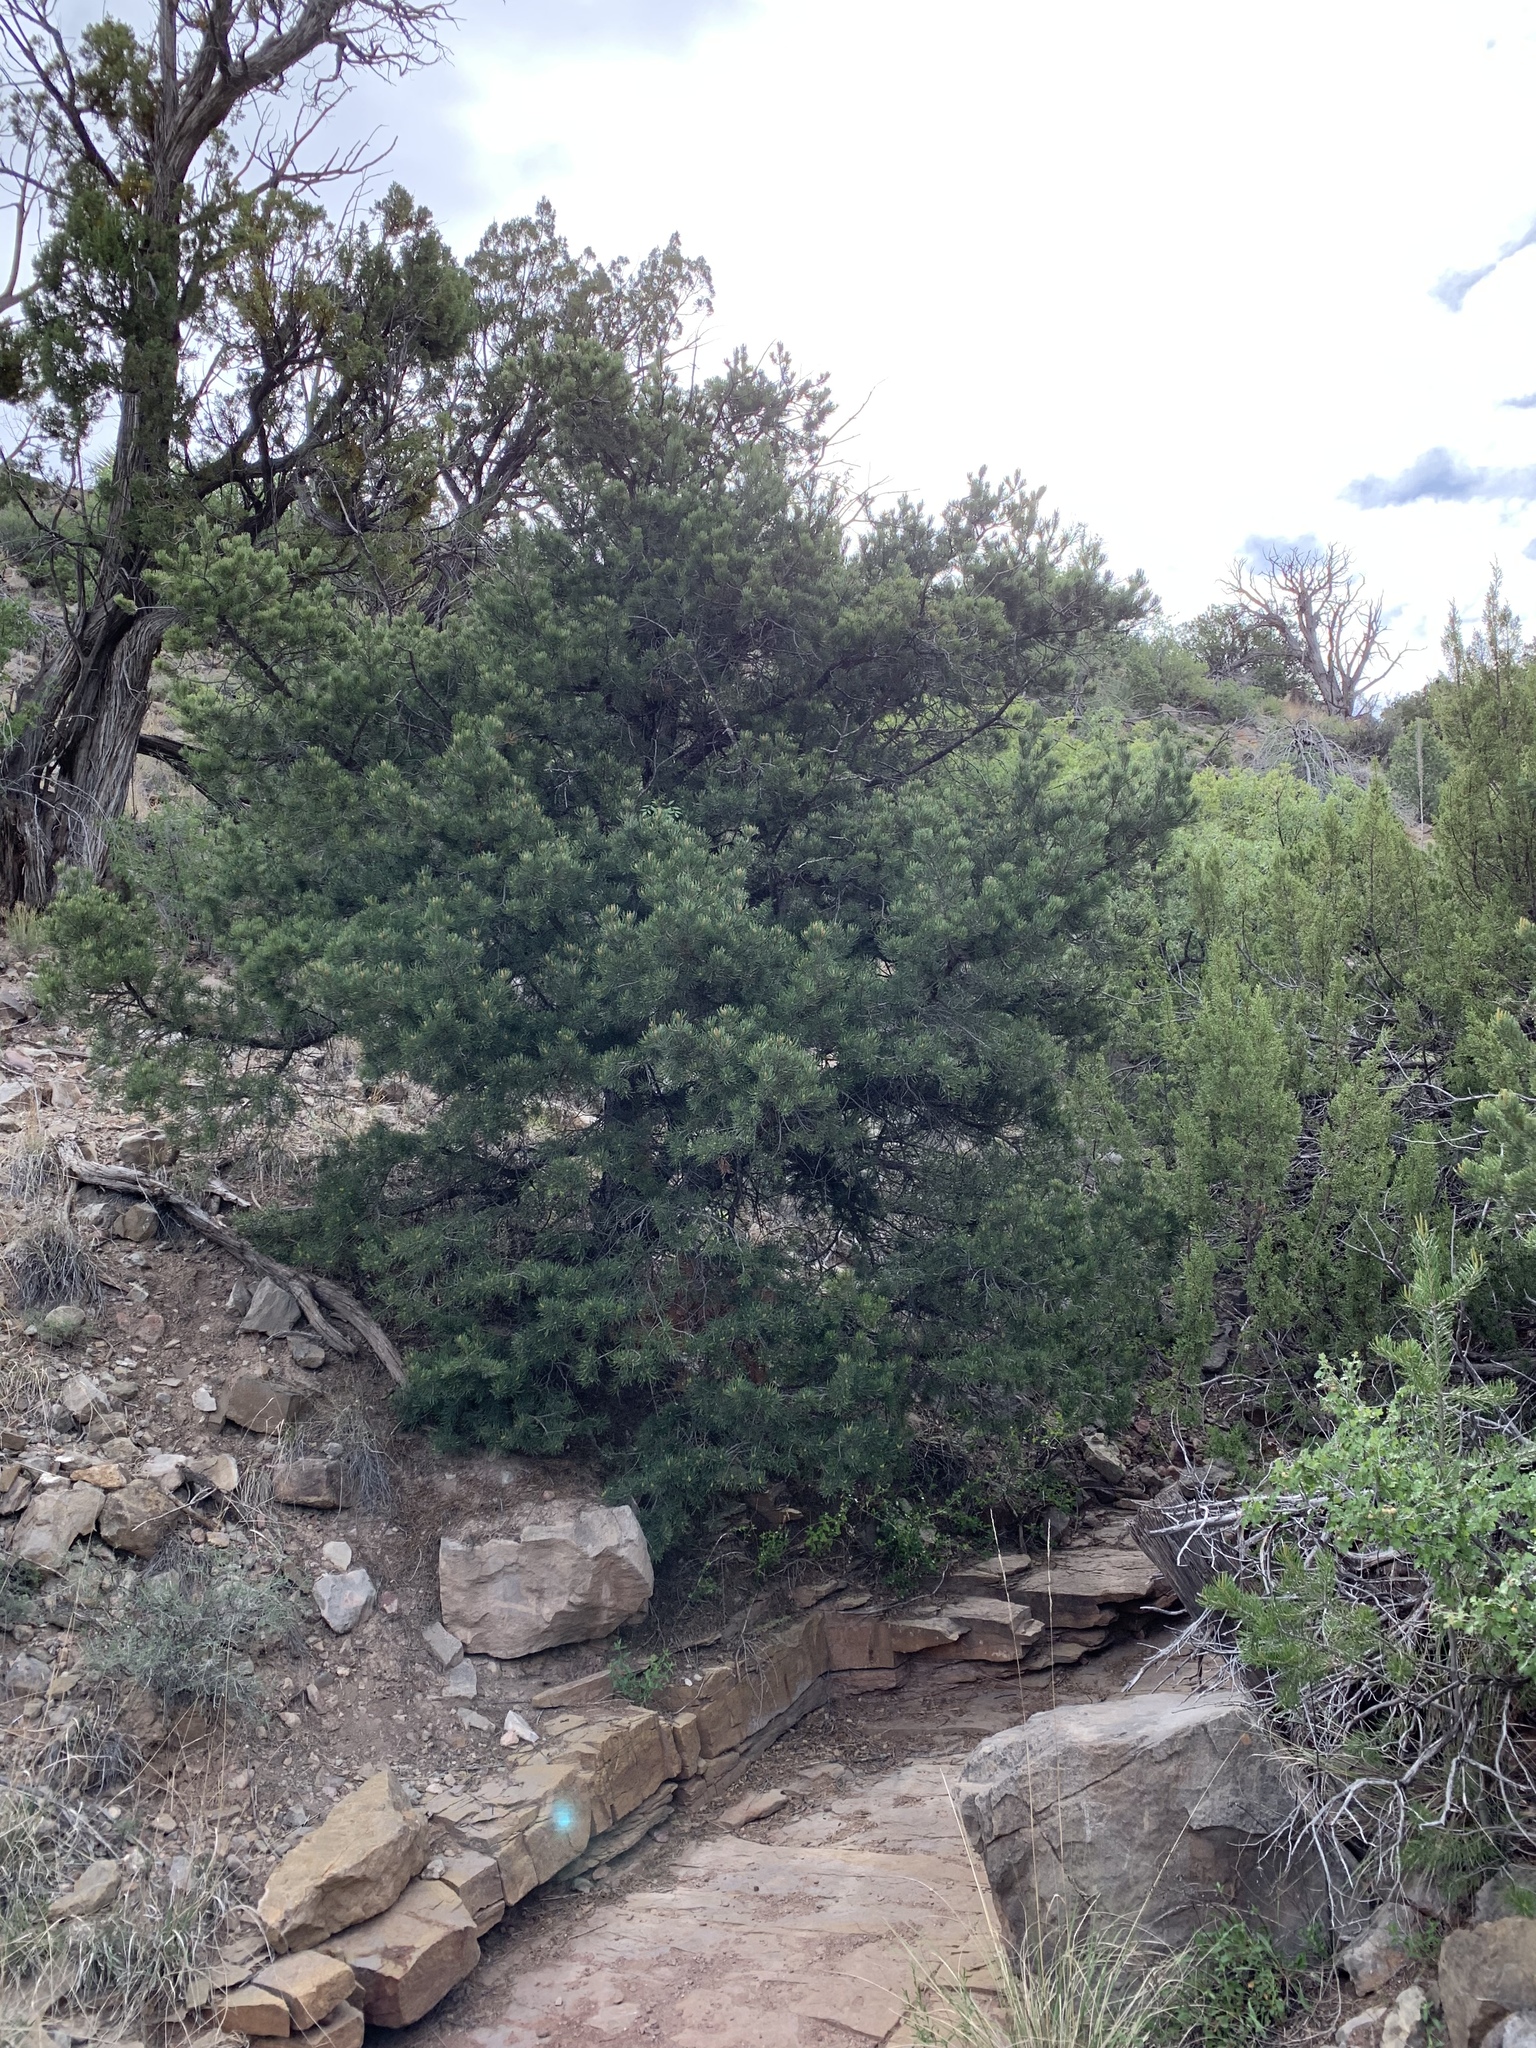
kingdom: Plantae
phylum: Tracheophyta
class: Pinopsida
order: Pinales
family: Pinaceae
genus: Pinus
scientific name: Pinus edulis
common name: Colorado pinyon
